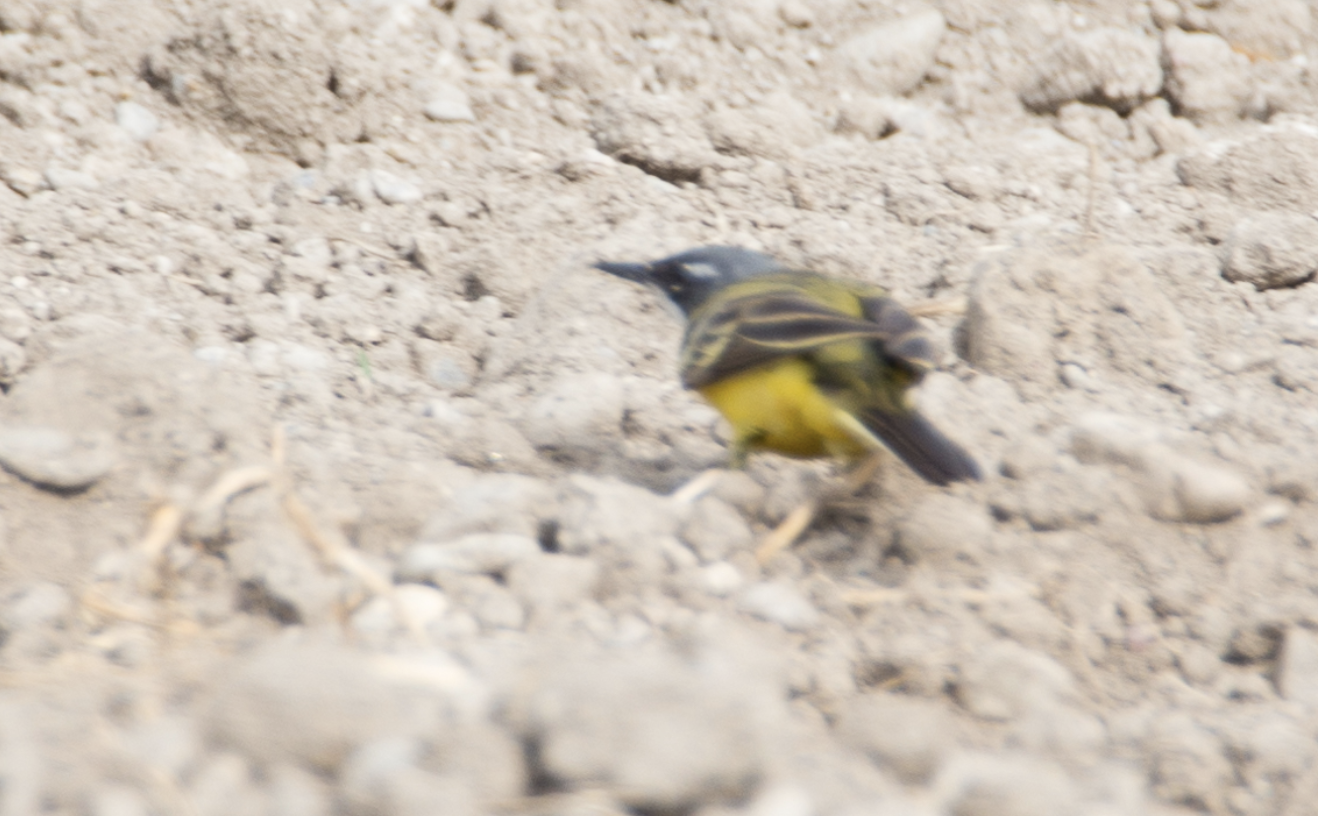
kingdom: Animalia
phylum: Chordata
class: Aves
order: Passeriformes
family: Motacillidae
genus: Motacilla
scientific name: Motacilla flava
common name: Western yellow wagtail
